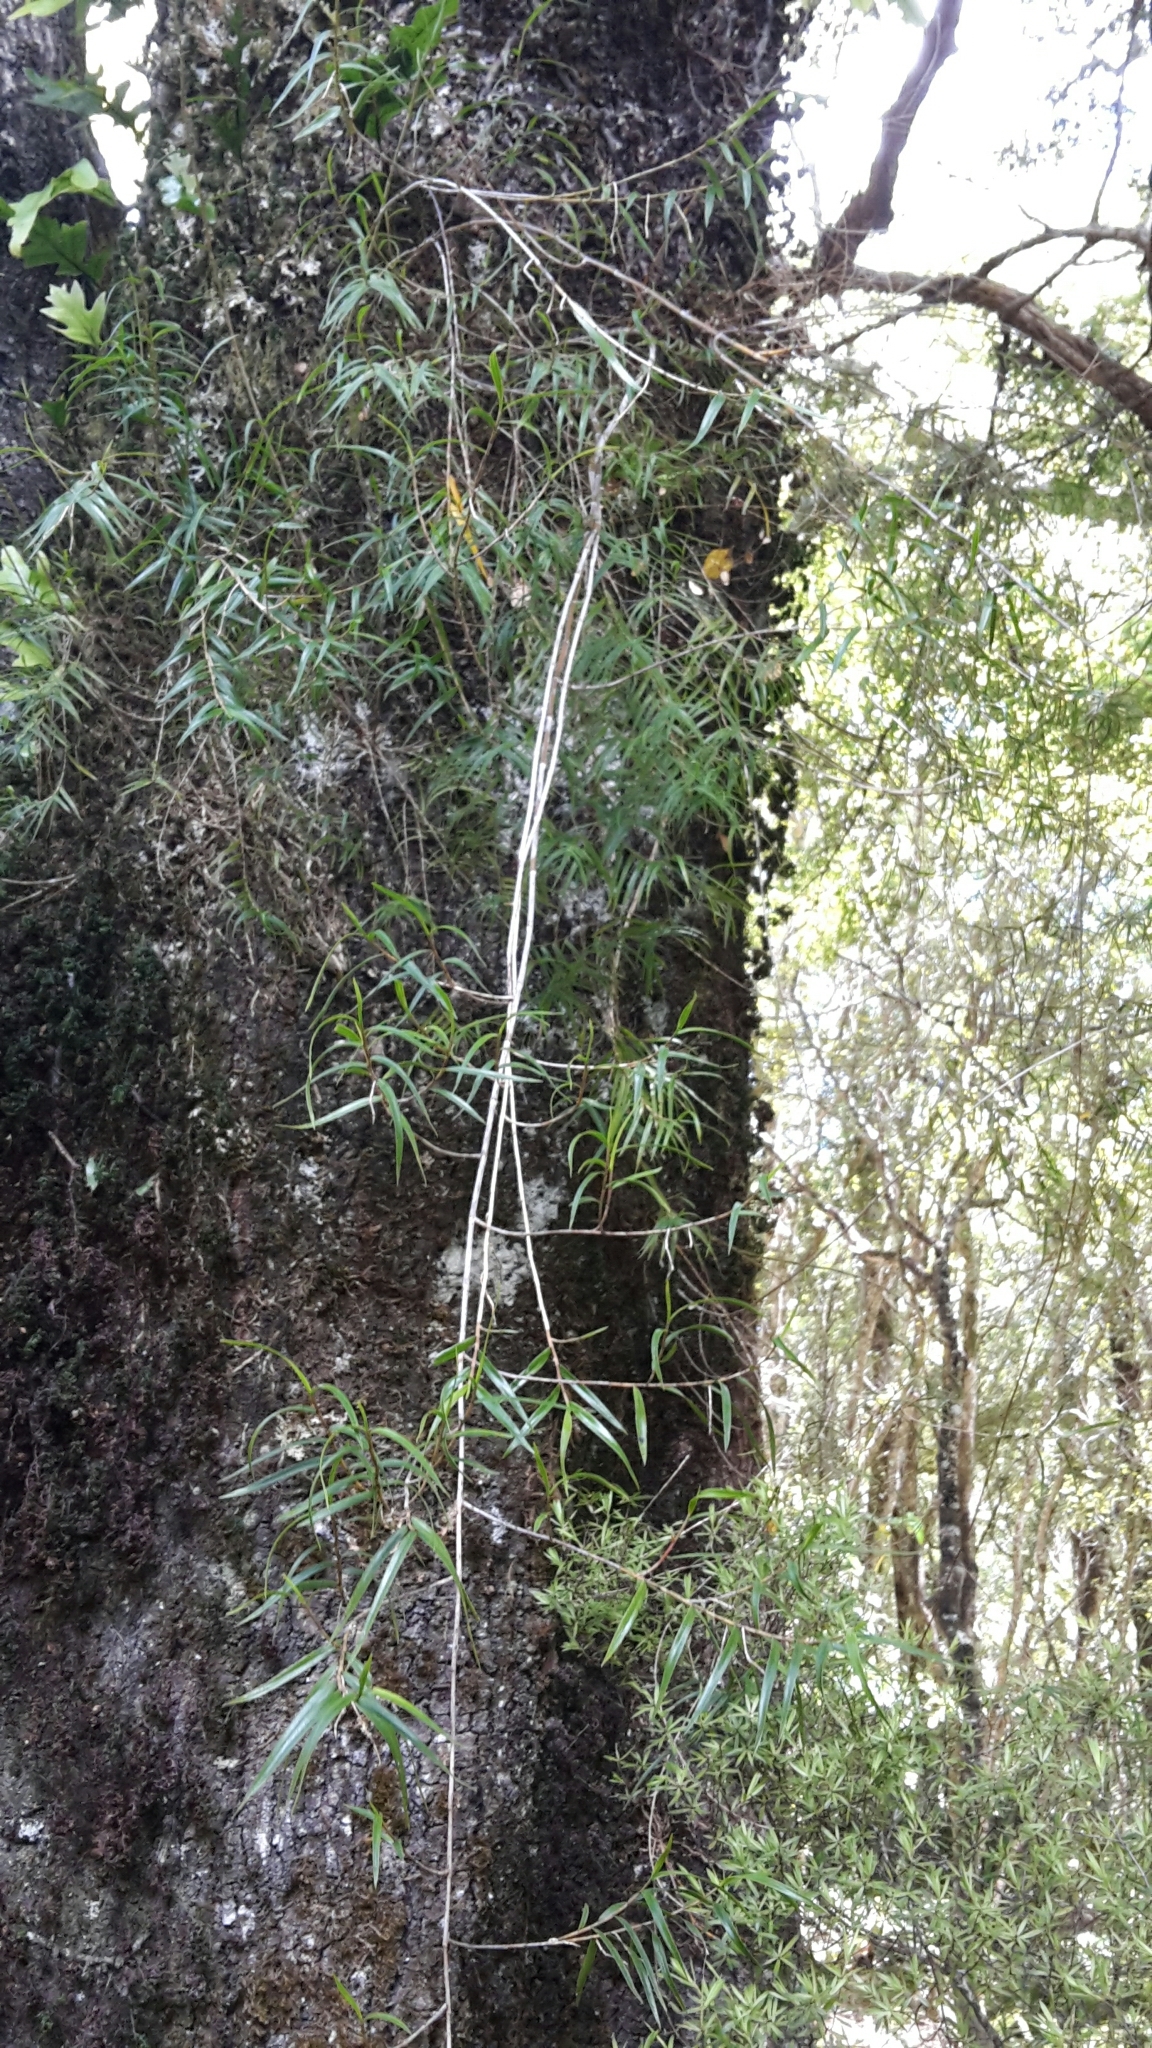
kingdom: Plantae
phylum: Tracheophyta
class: Liliopsida
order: Asparagales
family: Orchidaceae
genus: Dendrobium
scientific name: Dendrobium cunninghamii
